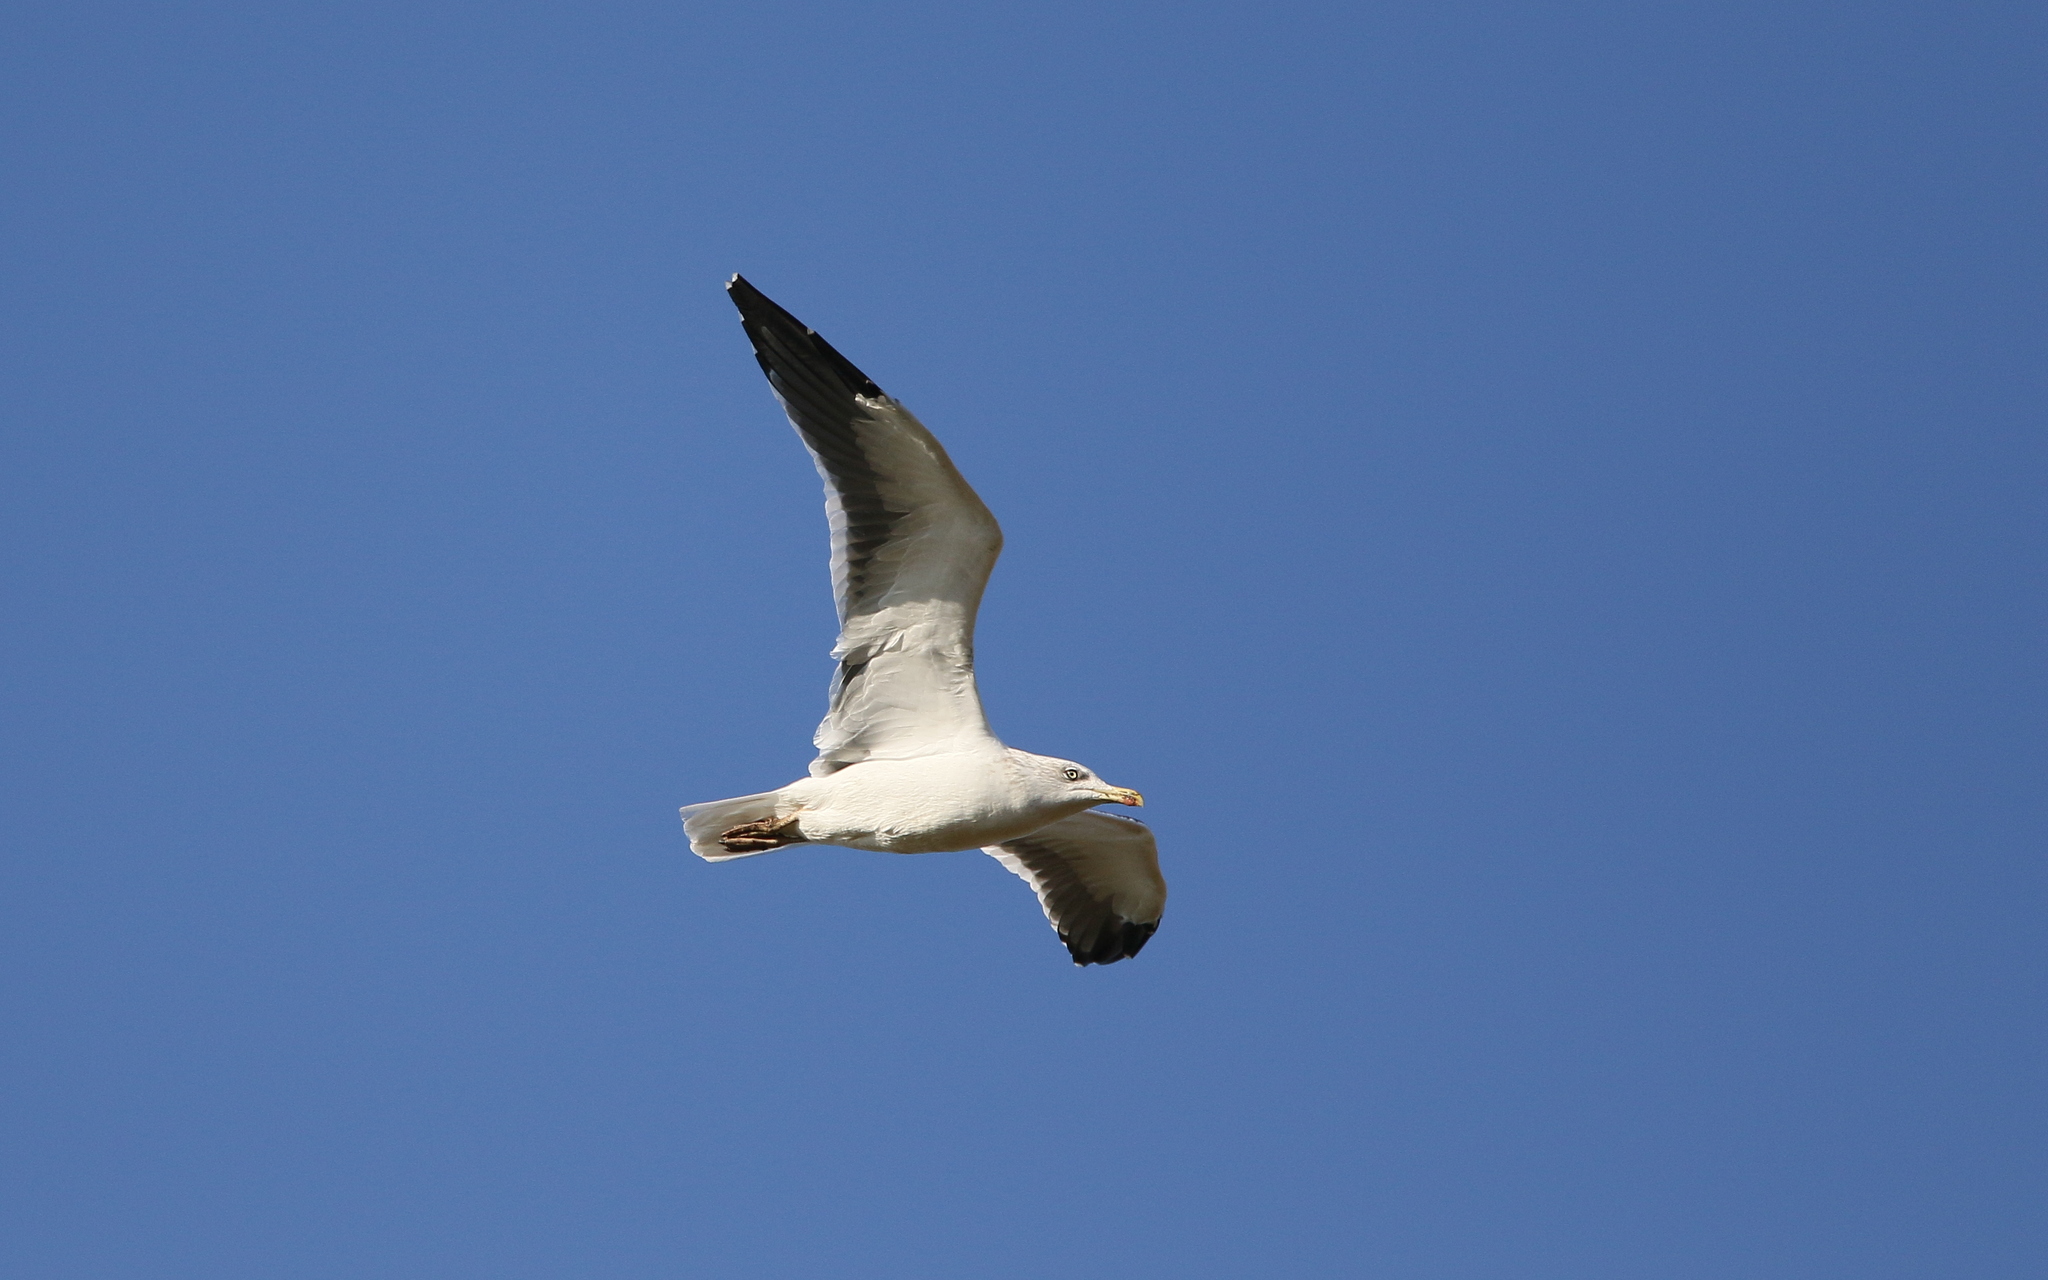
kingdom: Animalia
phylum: Chordata
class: Aves
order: Charadriiformes
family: Laridae
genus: Larus
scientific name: Larus fuscus
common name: Lesser black-backed gull
